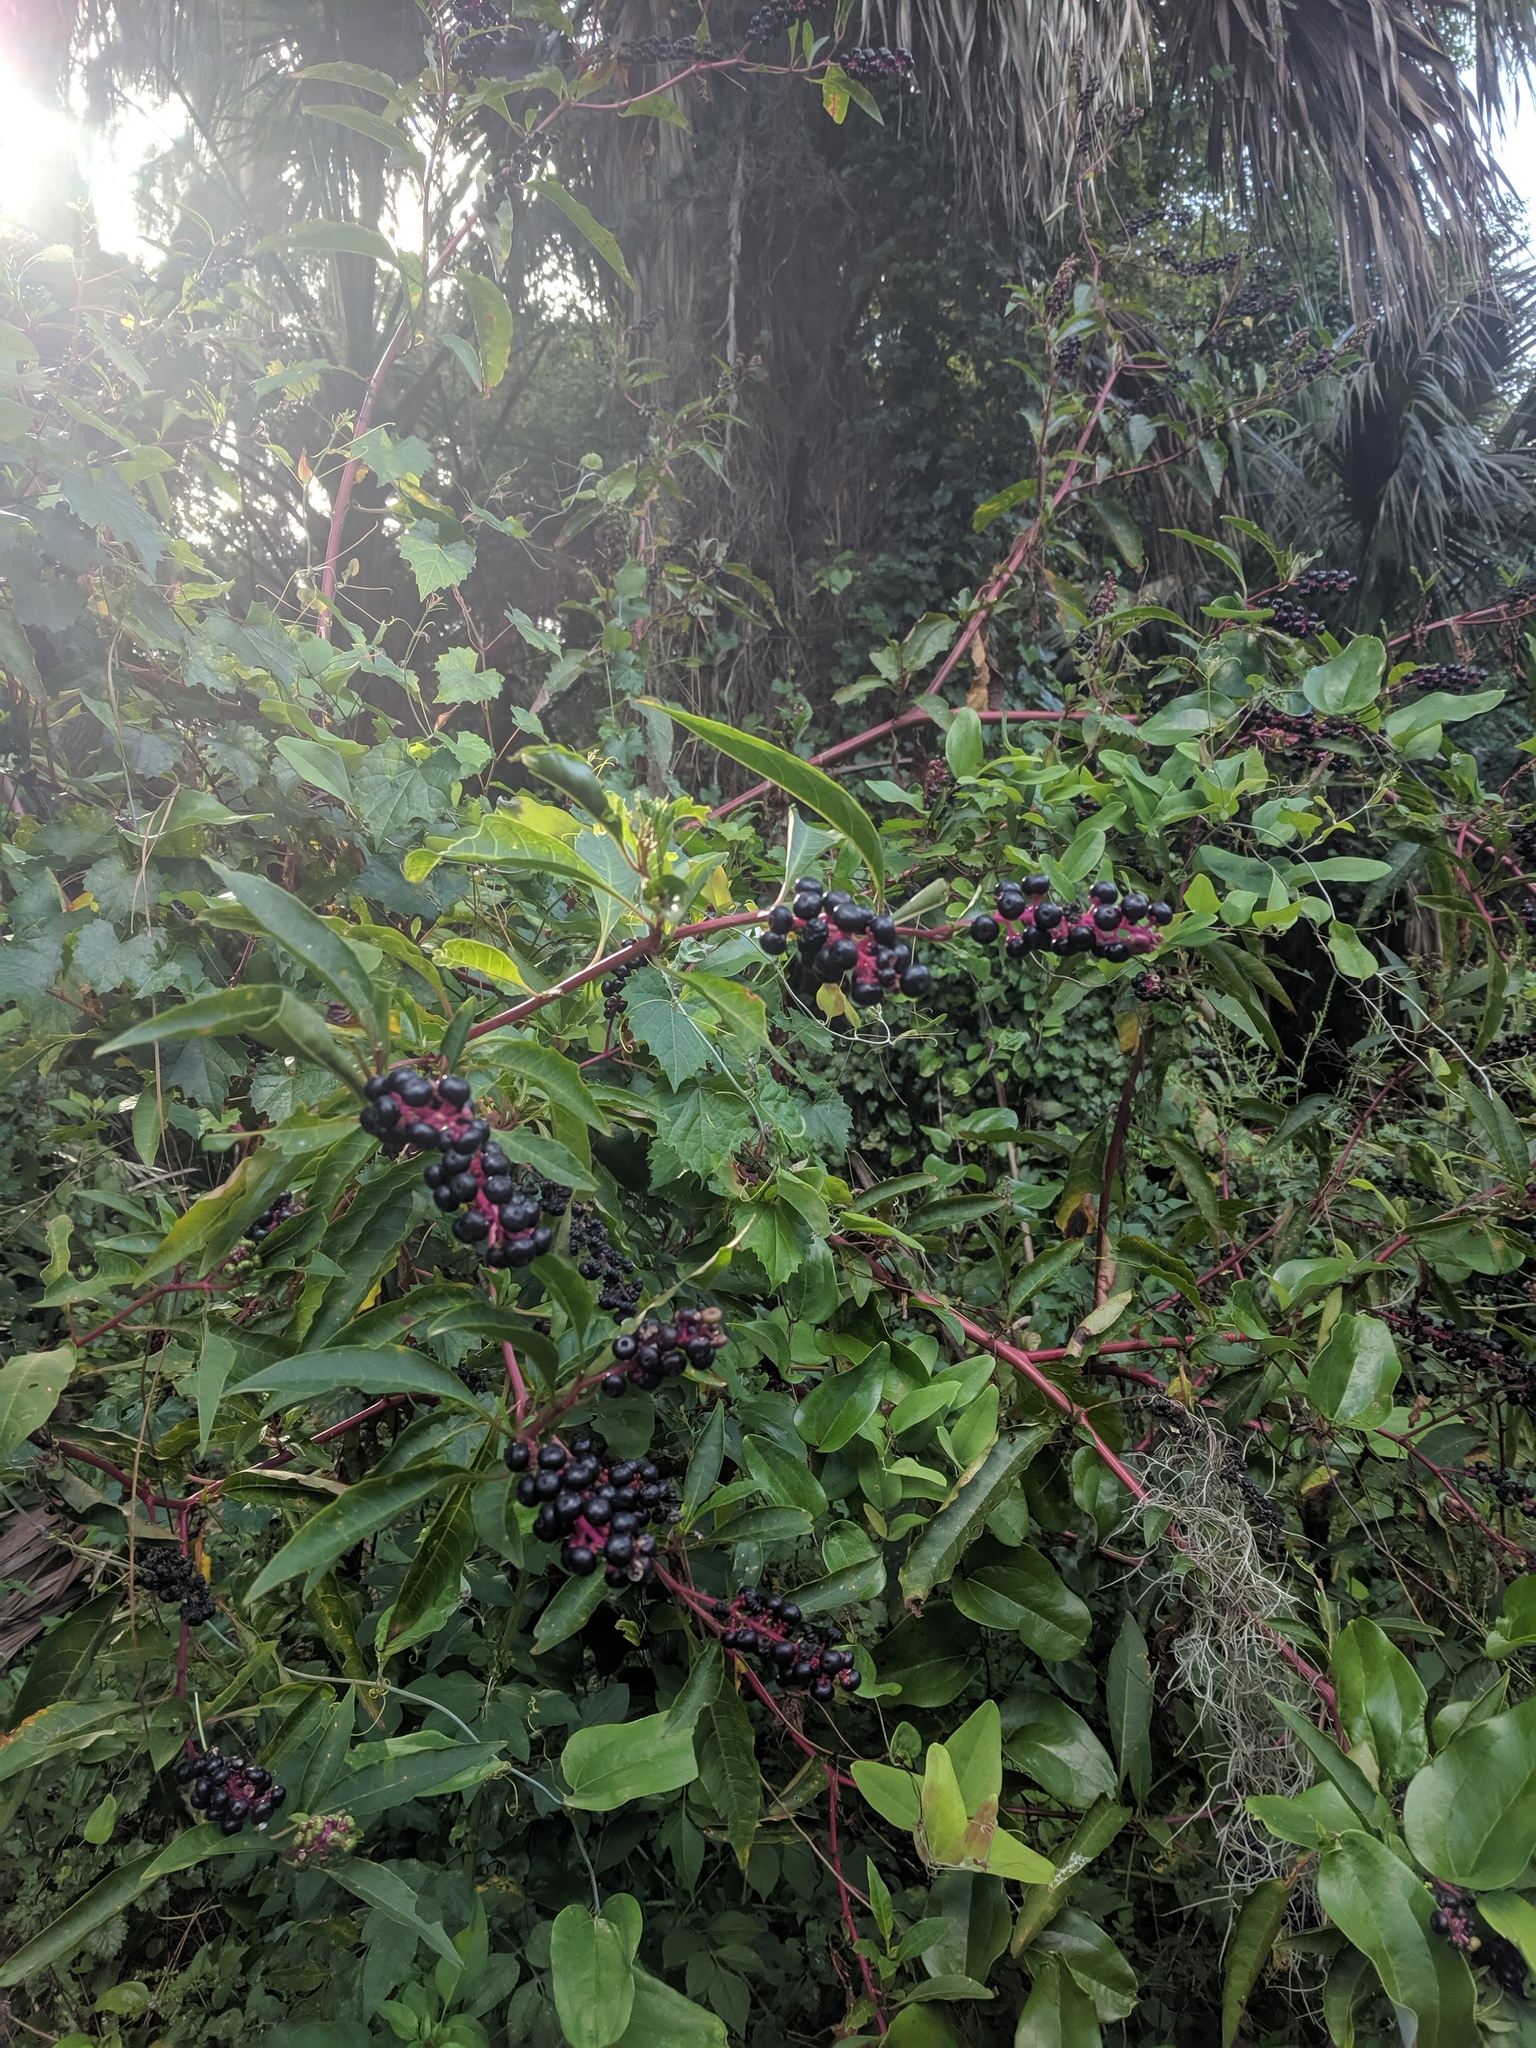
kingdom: Plantae
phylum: Tracheophyta
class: Magnoliopsida
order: Caryophyllales
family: Phytolaccaceae
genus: Phytolacca
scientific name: Phytolacca americana
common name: American pokeweed
